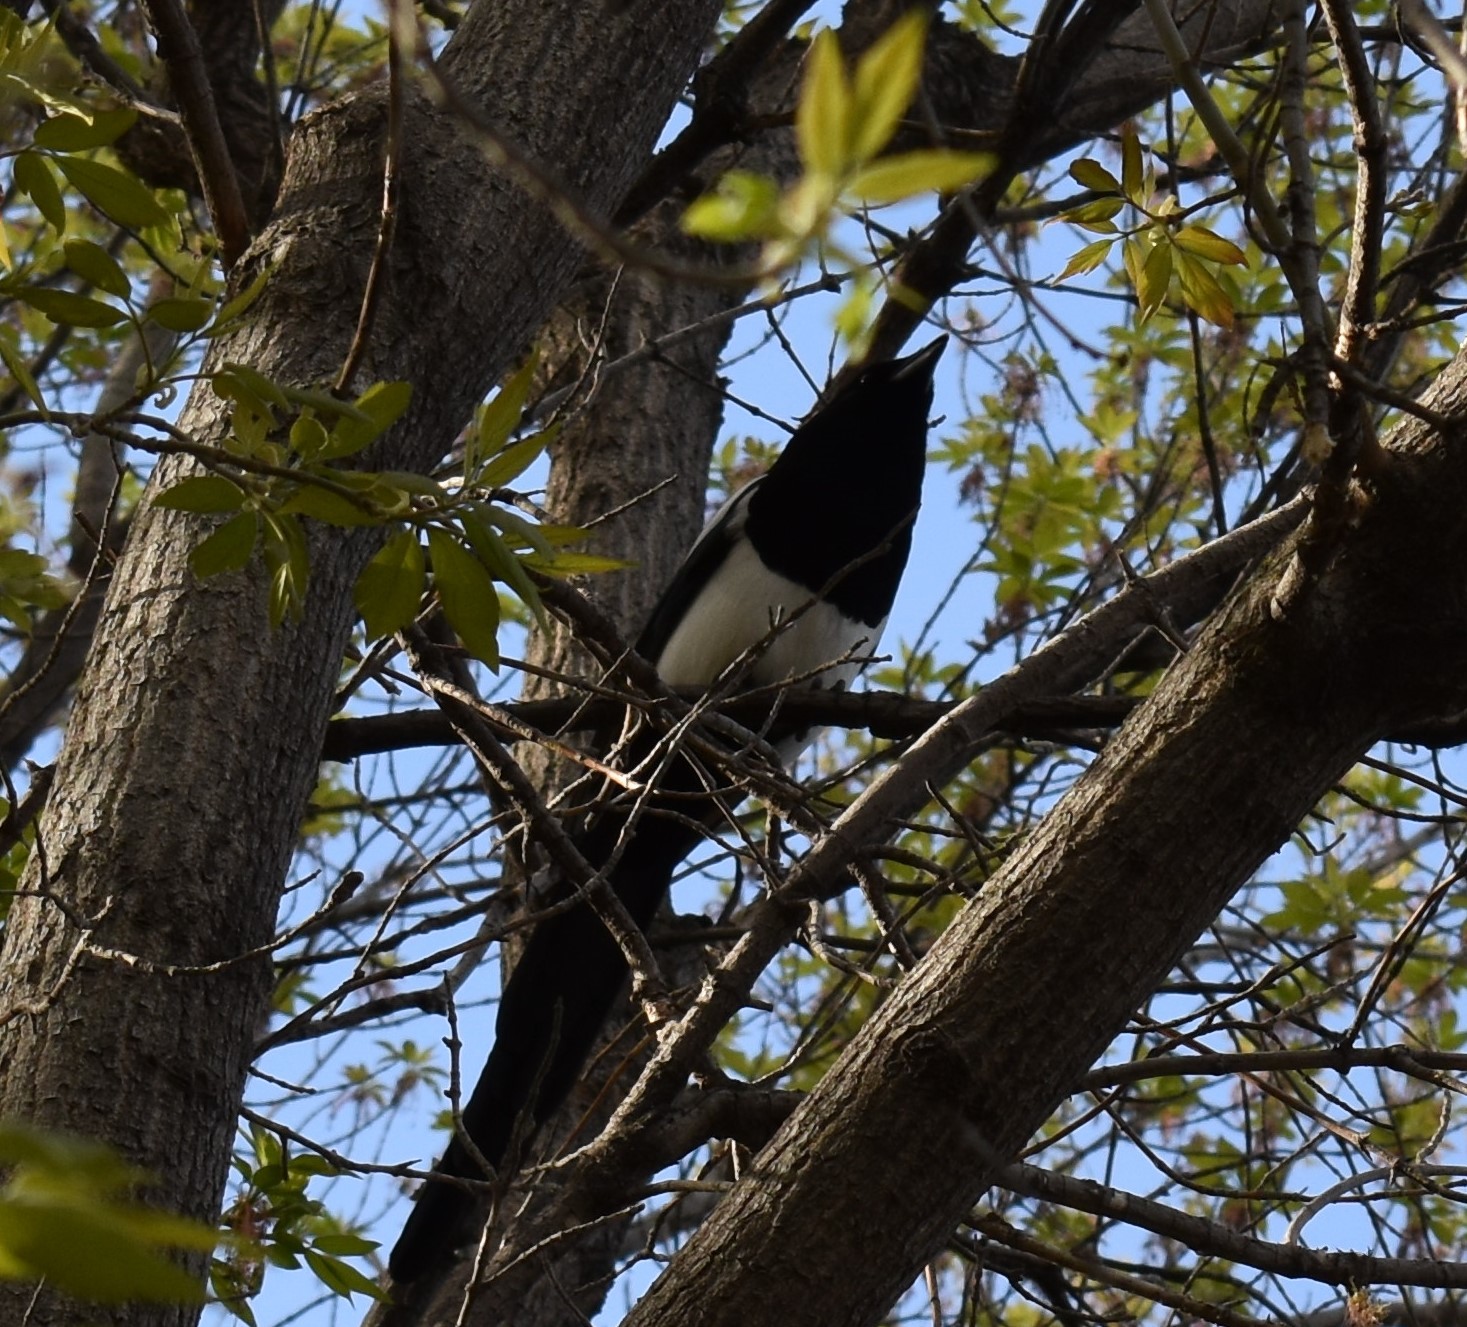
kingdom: Animalia
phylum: Chordata
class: Aves
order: Passeriformes
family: Corvidae
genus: Pica
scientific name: Pica hudsonia
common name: Black-billed magpie
